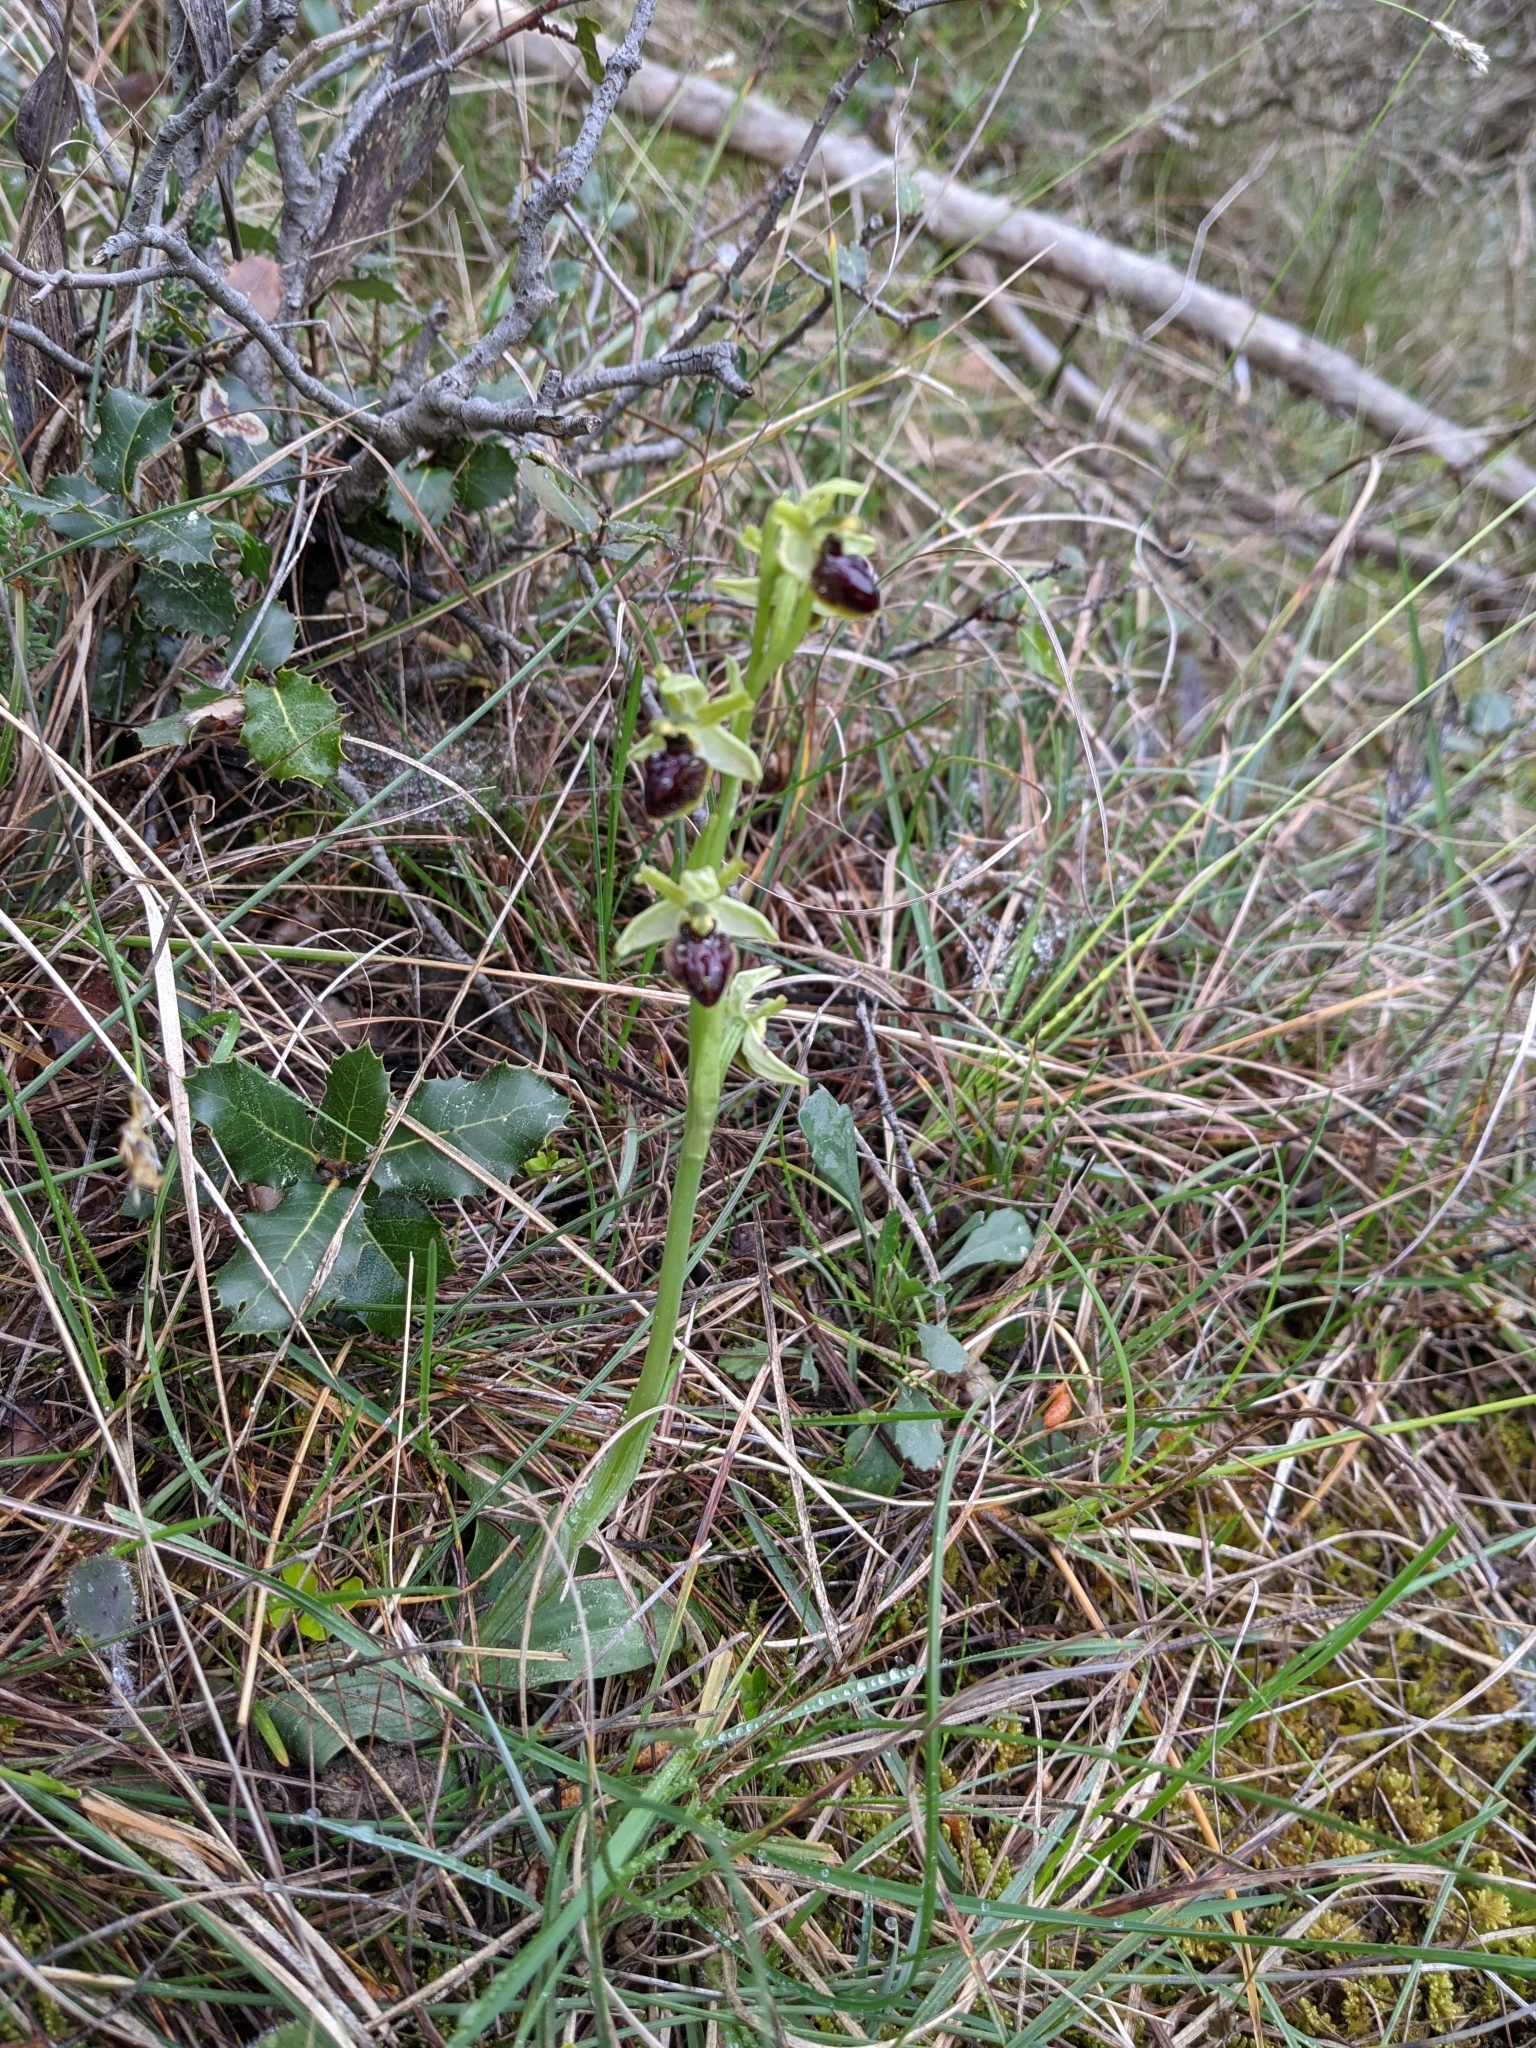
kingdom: Plantae
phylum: Tracheophyta
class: Liliopsida
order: Asparagales
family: Orchidaceae
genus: Ophrys
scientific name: Ophrys sphegodes
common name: Early spider-orchid
